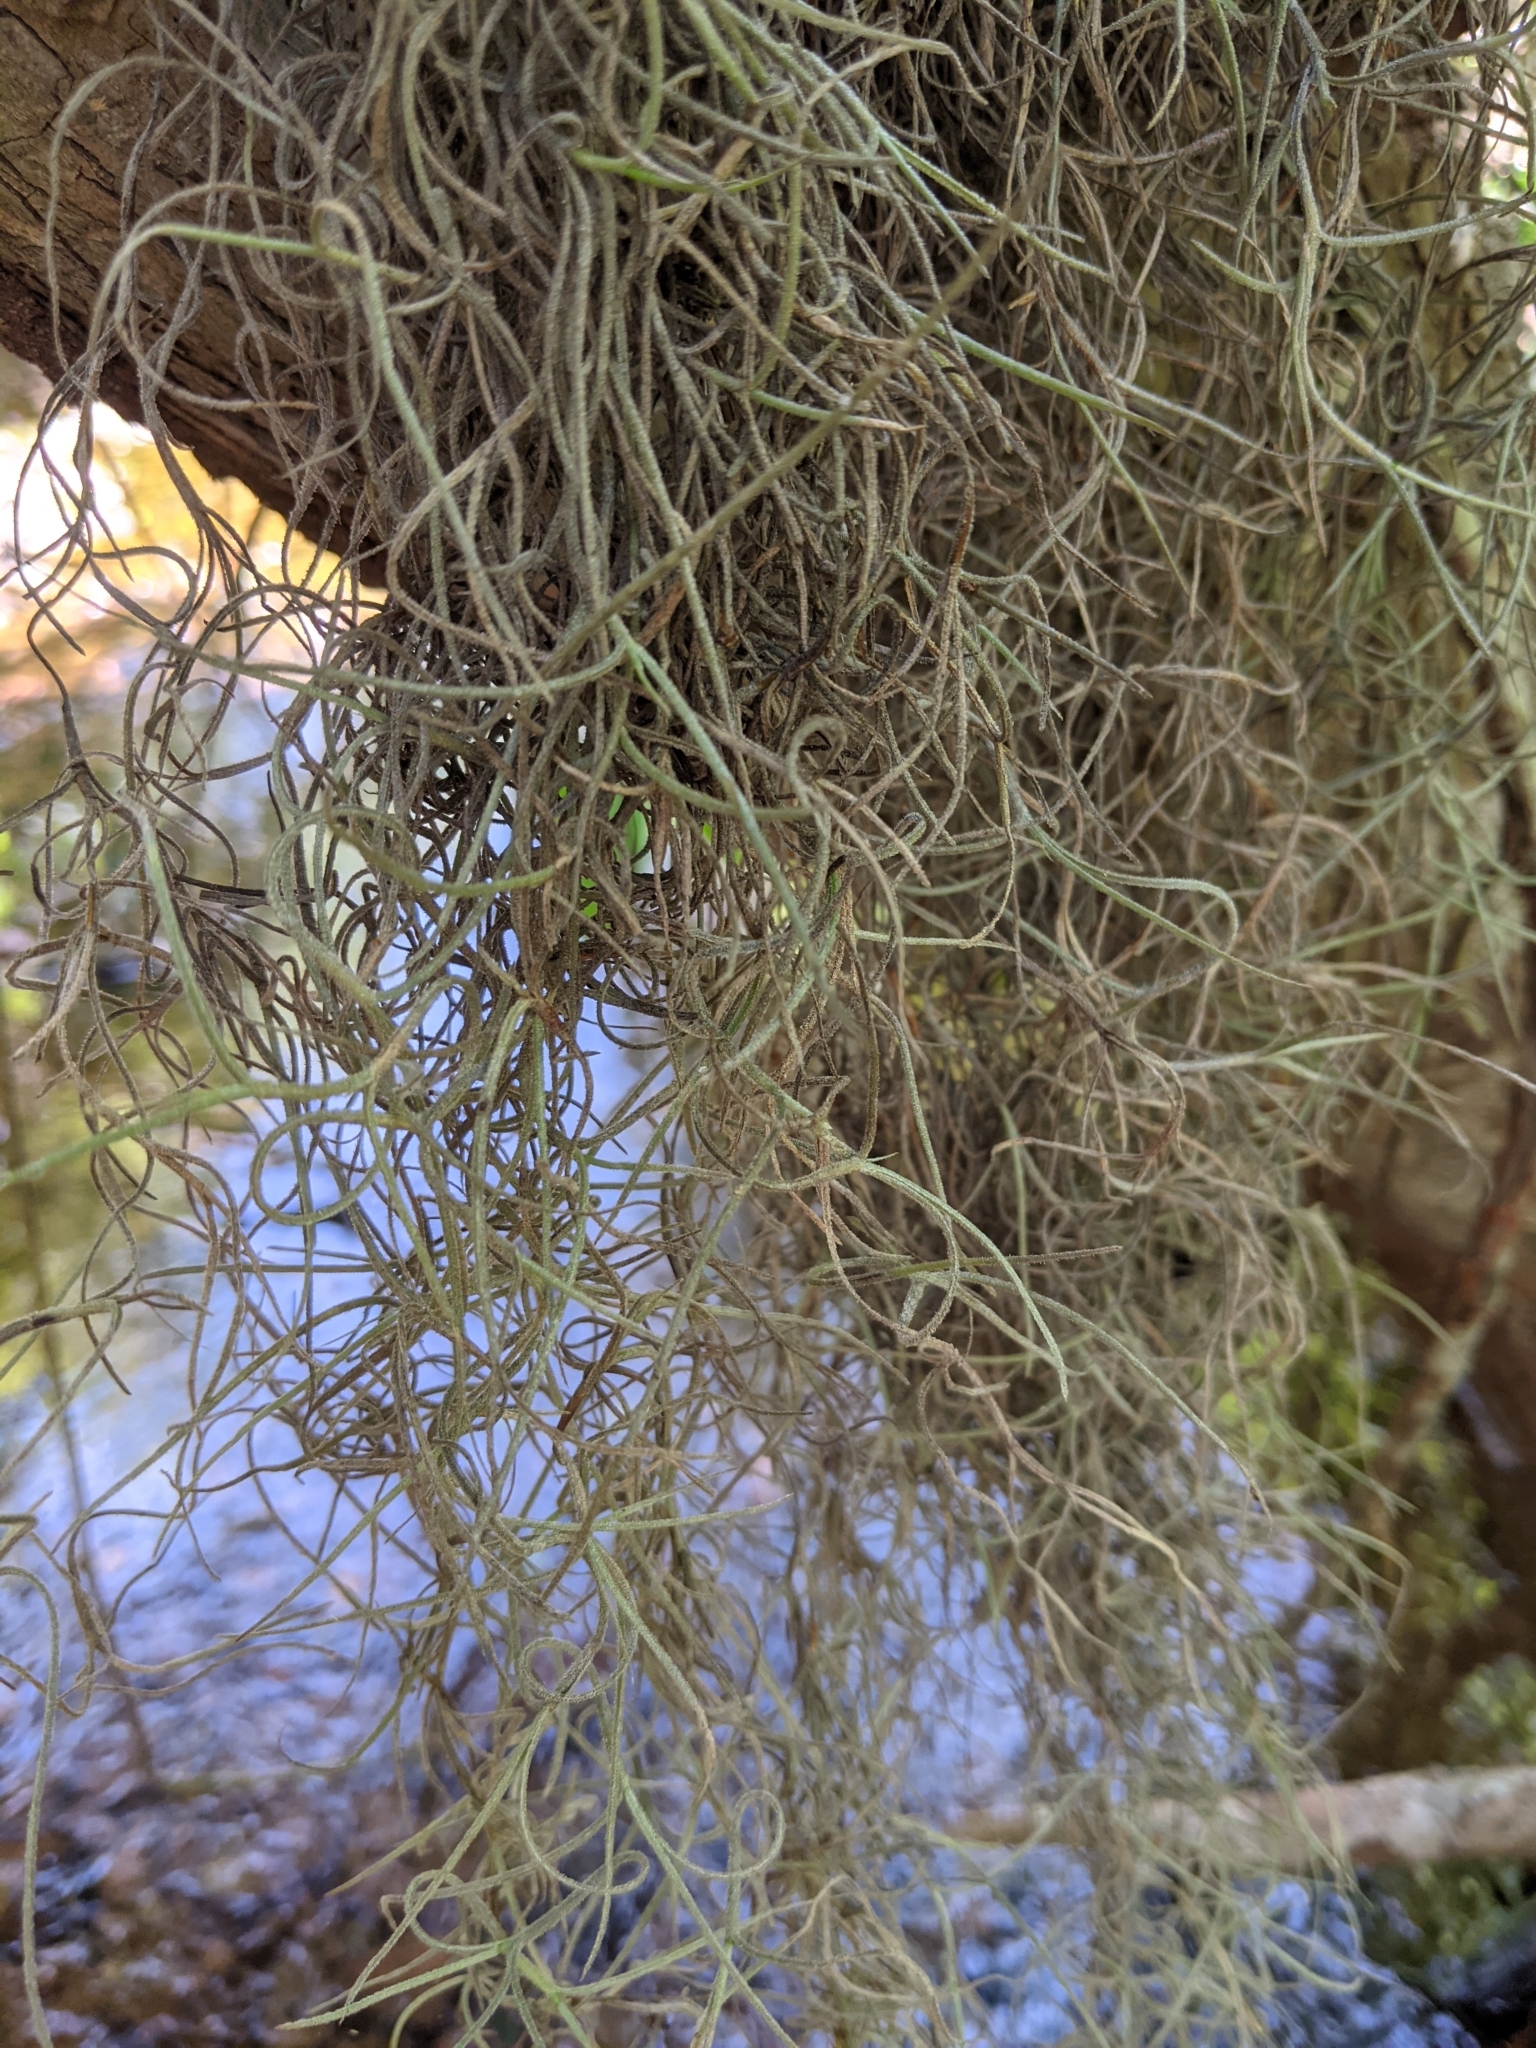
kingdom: Plantae
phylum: Tracheophyta
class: Liliopsida
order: Poales
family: Bromeliaceae
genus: Tillandsia
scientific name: Tillandsia usneoides
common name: Spanish moss
